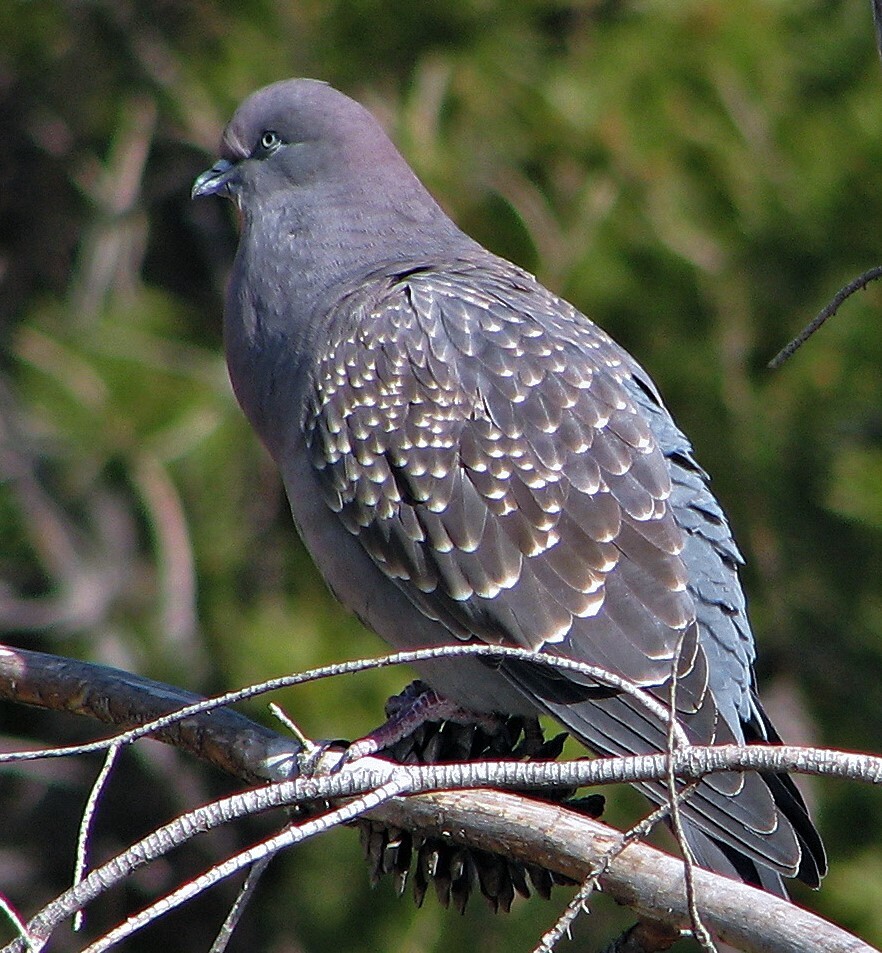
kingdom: Animalia
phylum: Chordata
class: Aves
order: Columbiformes
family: Columbidae
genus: Patagioenas
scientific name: Patagioenas maculosa
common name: Spot-winged pigeon
